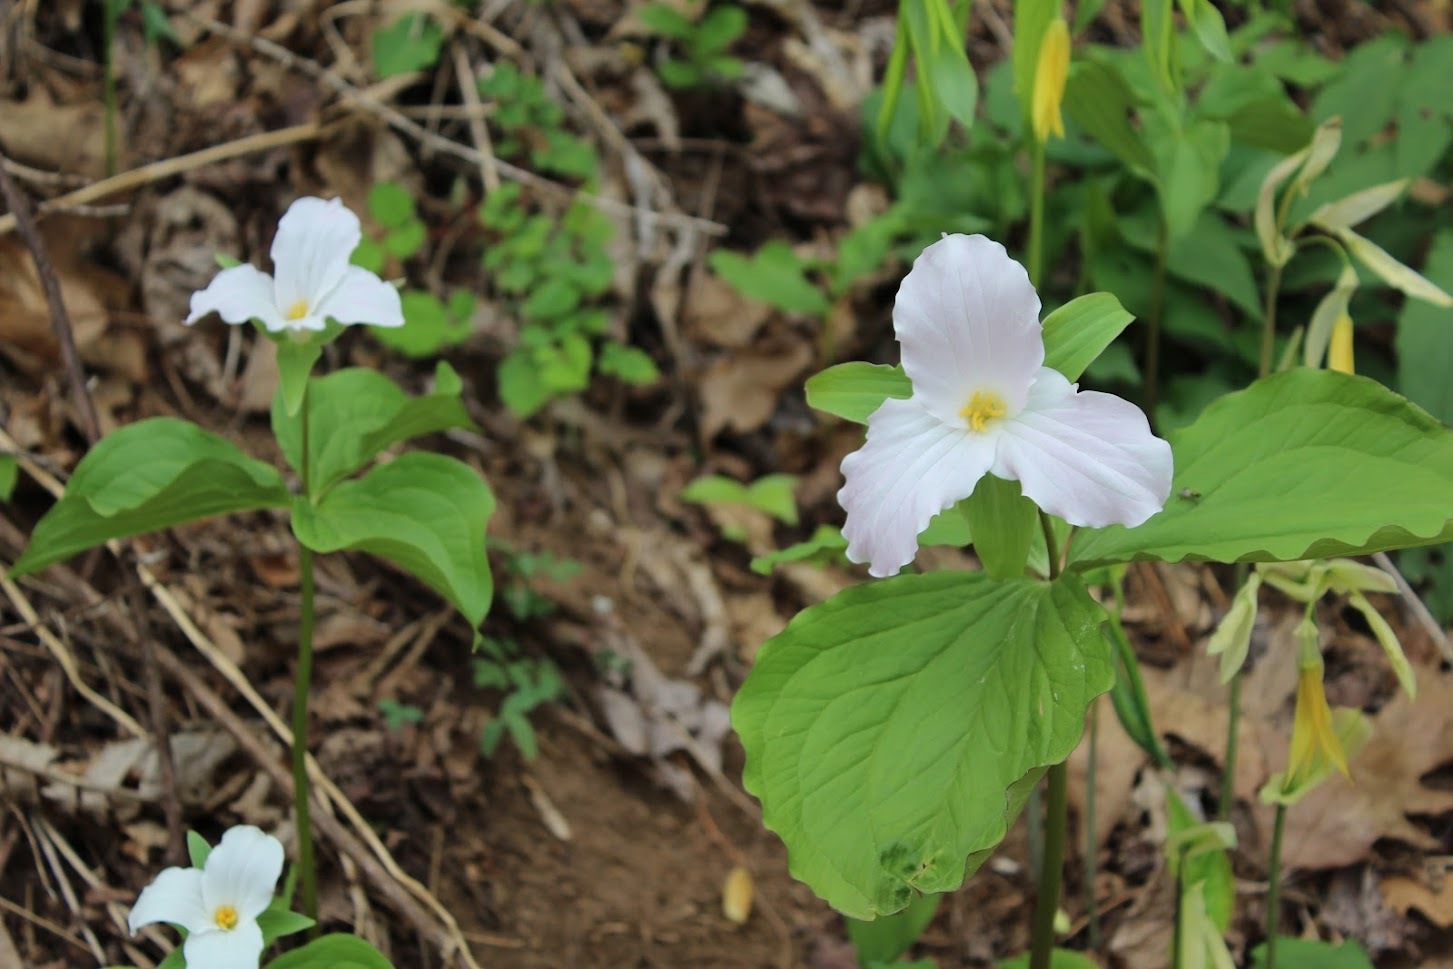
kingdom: Plantae
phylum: Tracheophyta
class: Liliopsida
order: Liliales
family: Melanthiaceae
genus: Trillium
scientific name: Trillium grandiflorum
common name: Great white trillium
